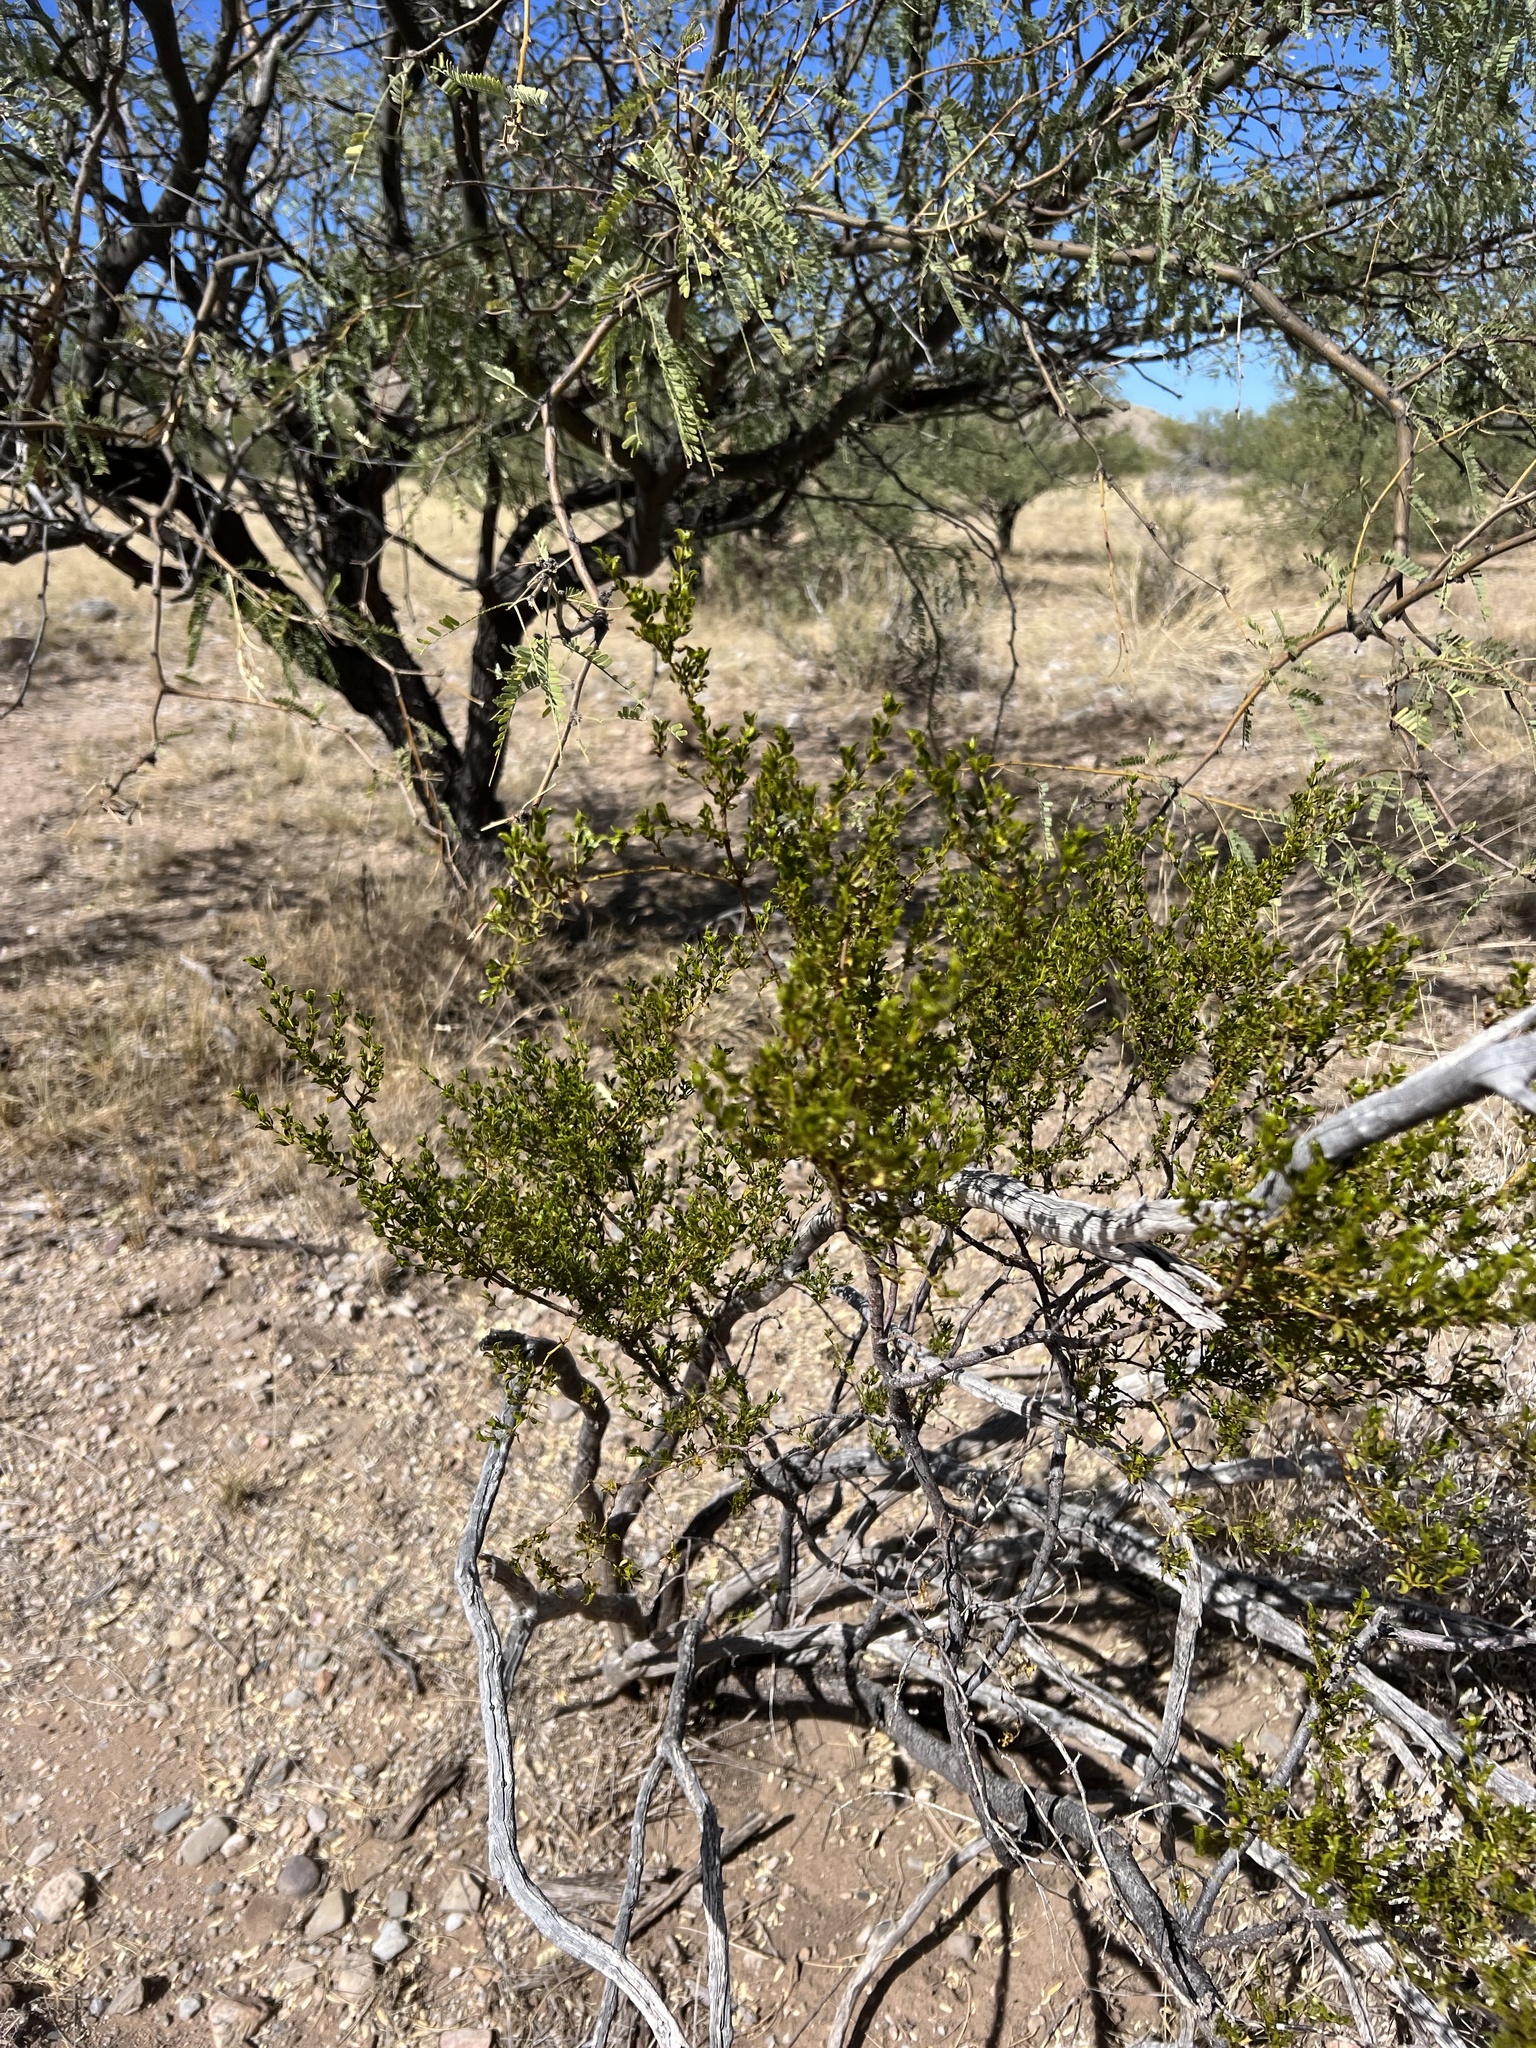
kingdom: Plantae
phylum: Tracheophyta
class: Magnoliopsida
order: Zygophyllales
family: Zygophyllaceae
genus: Larrea
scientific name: Larrea tridentata
